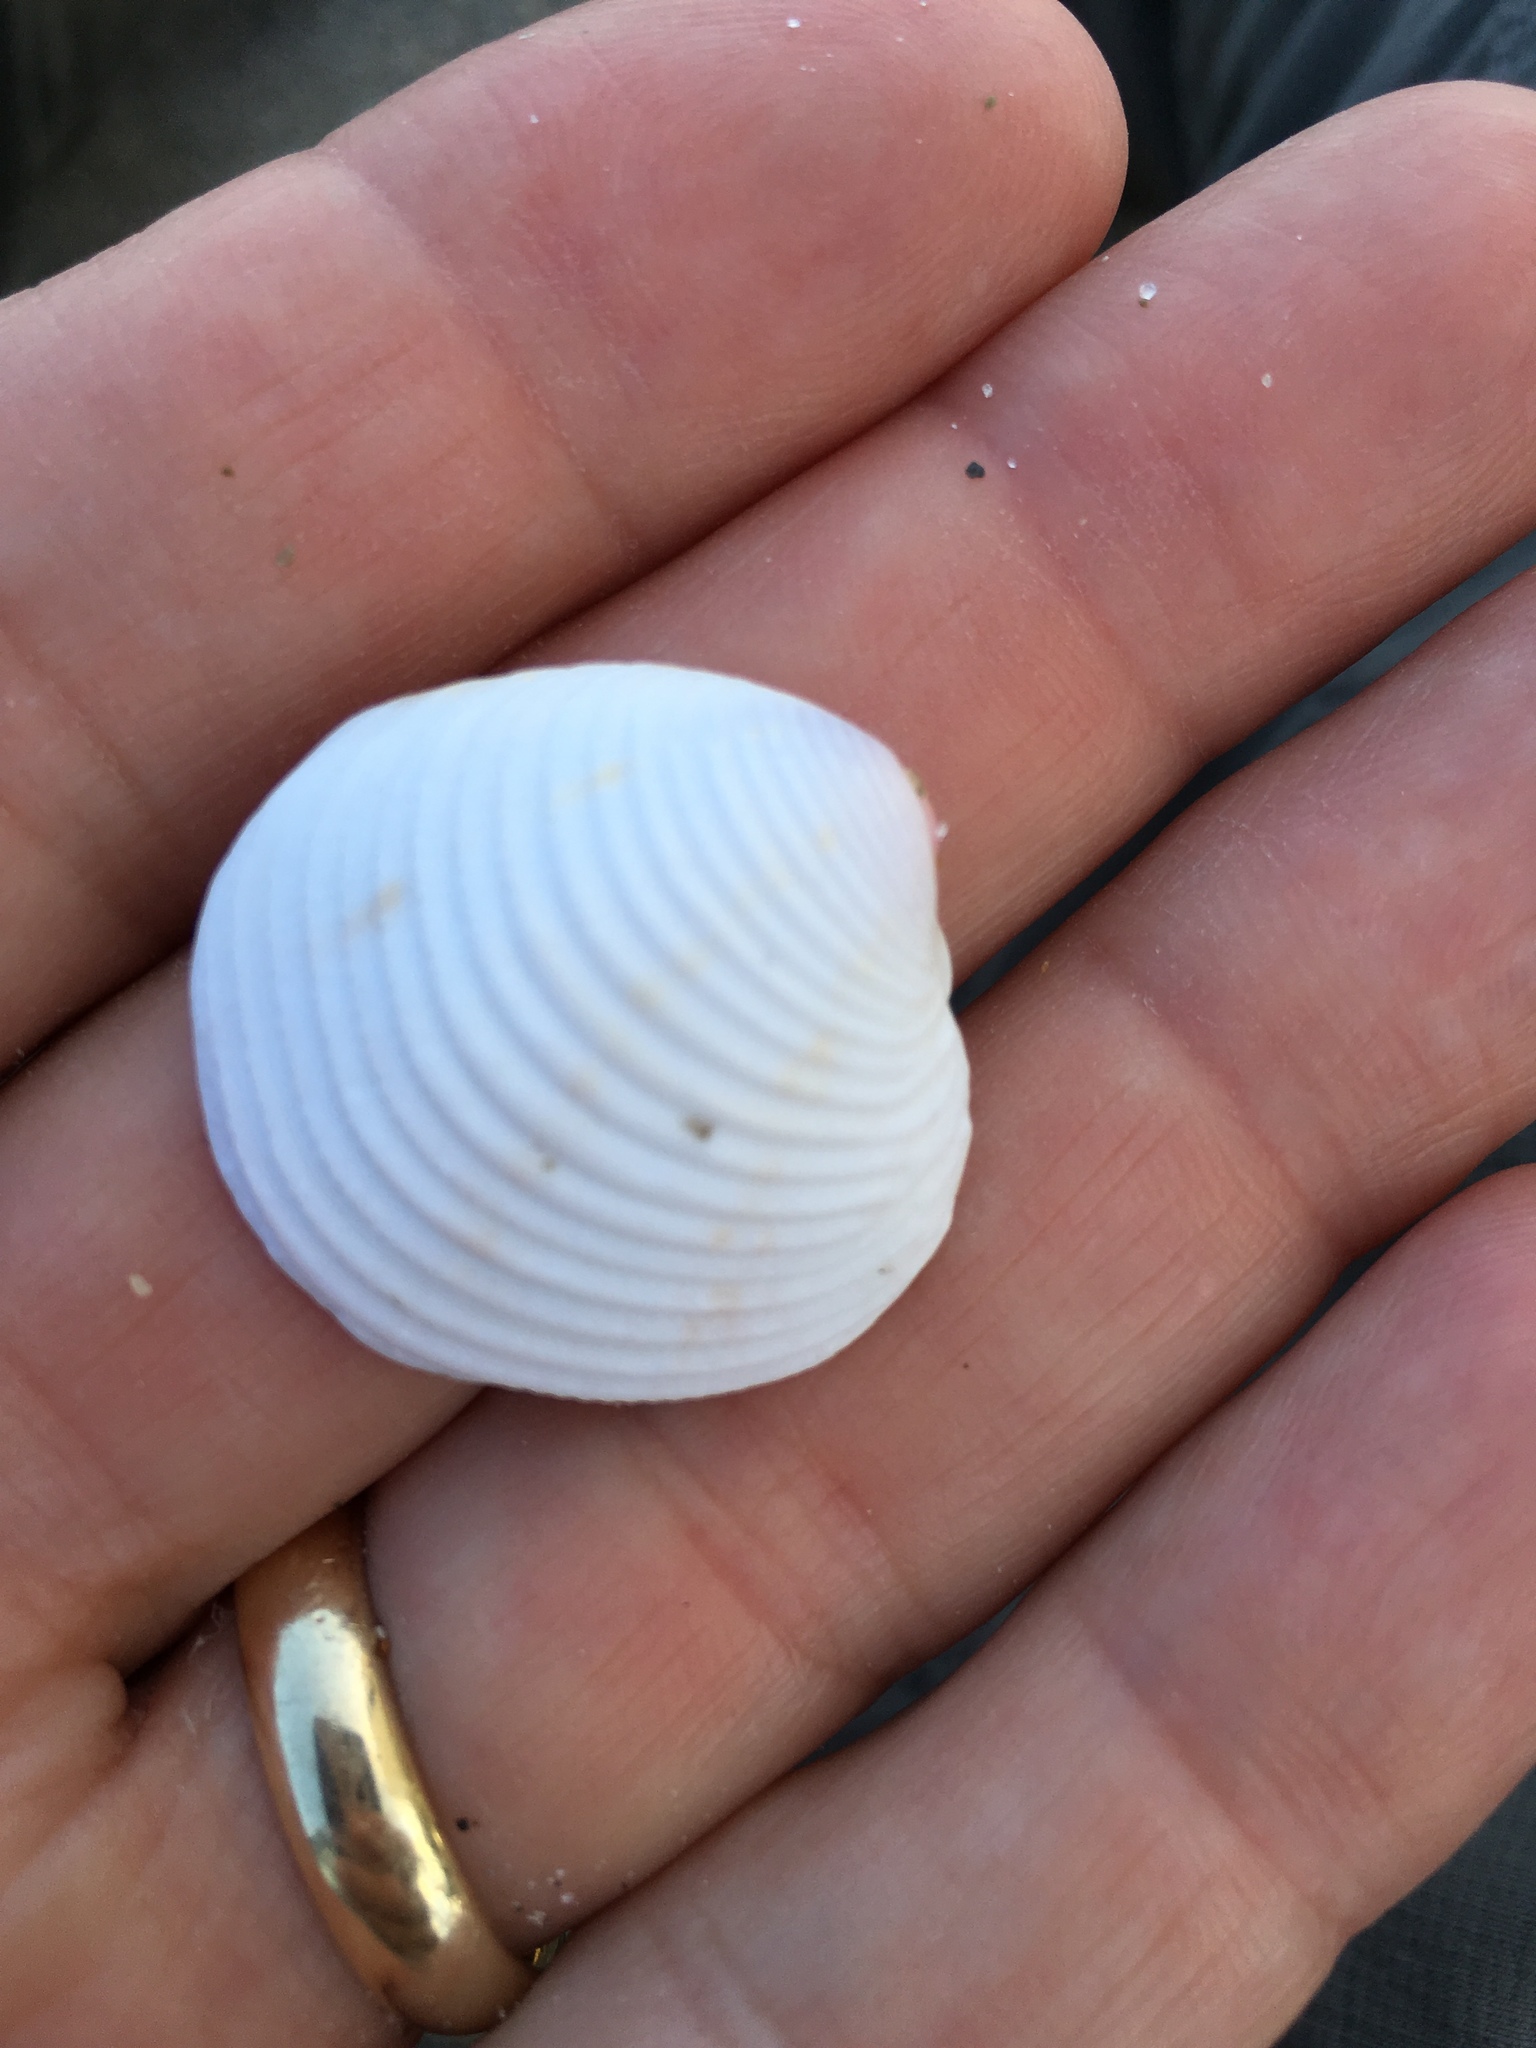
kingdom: Animalia
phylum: Mollusca
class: Bivalvia
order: Venerida
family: Veneridae
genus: Chionopsis
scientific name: Chionopsis intapurpurea
